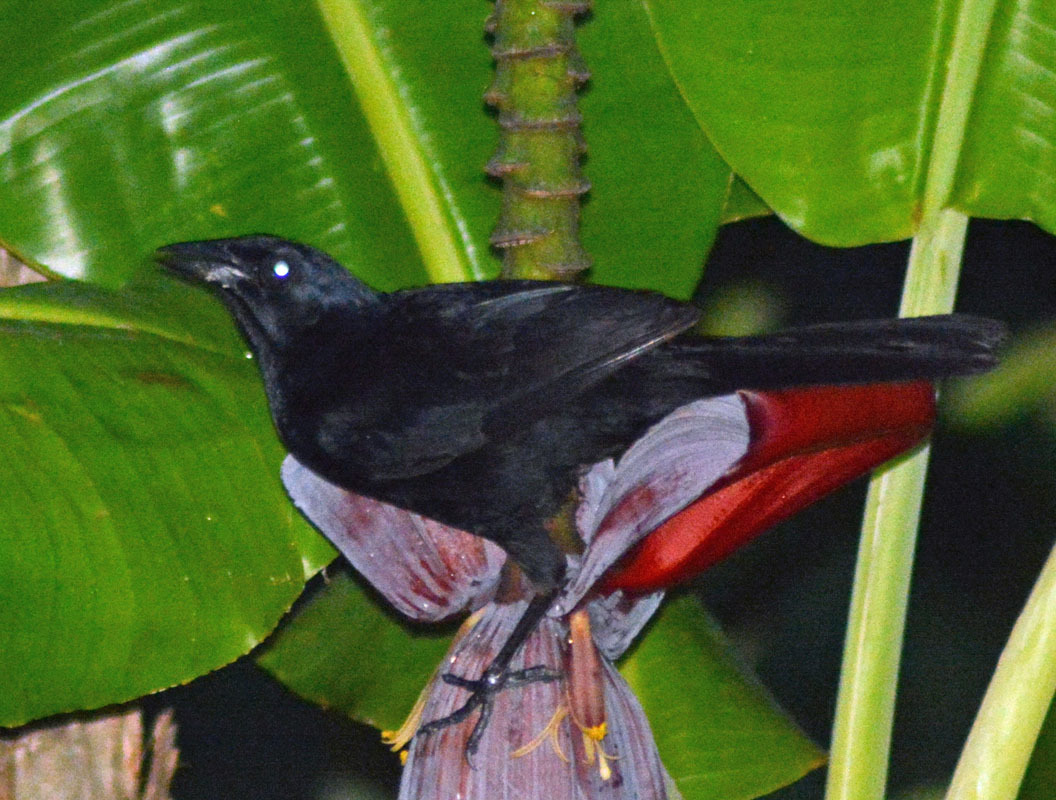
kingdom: Animalia
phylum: Chordata
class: Aves
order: Passeriformes
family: Icteridae
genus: Dives
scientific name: Dives dives
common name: Melodious blackbird
